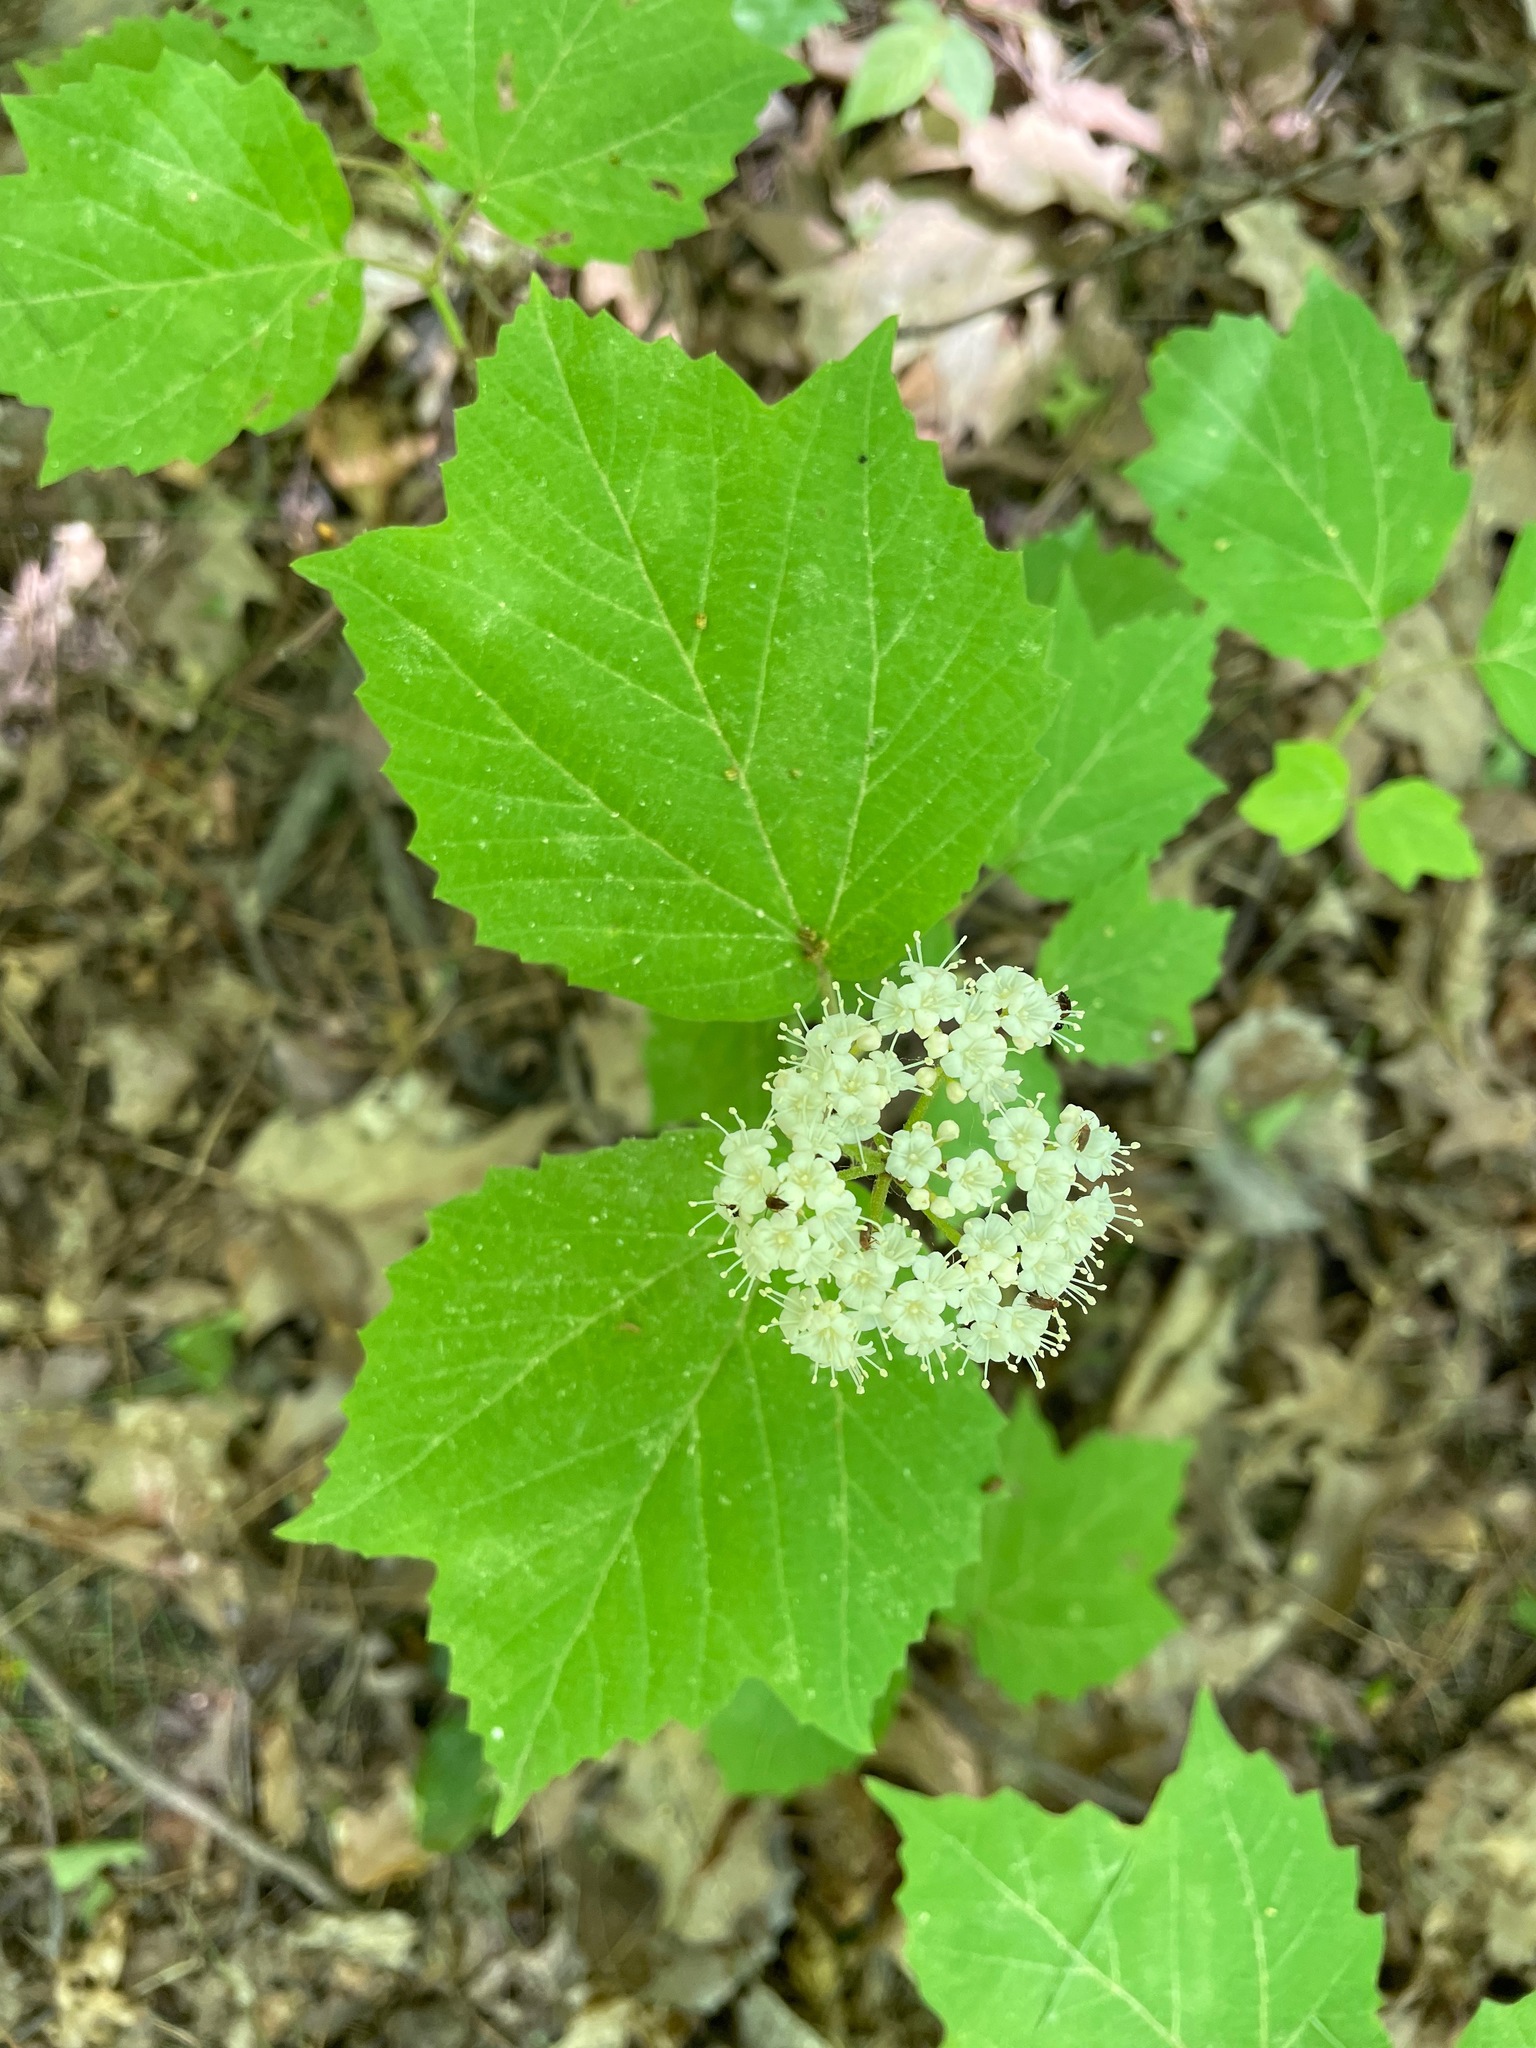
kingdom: Plantae
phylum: Tracheophyta
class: Magnoliopsida
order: Dipsacales
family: Viburnaceae
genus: Viburnum
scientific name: Viburnum acerifolium
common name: Dockmackie
